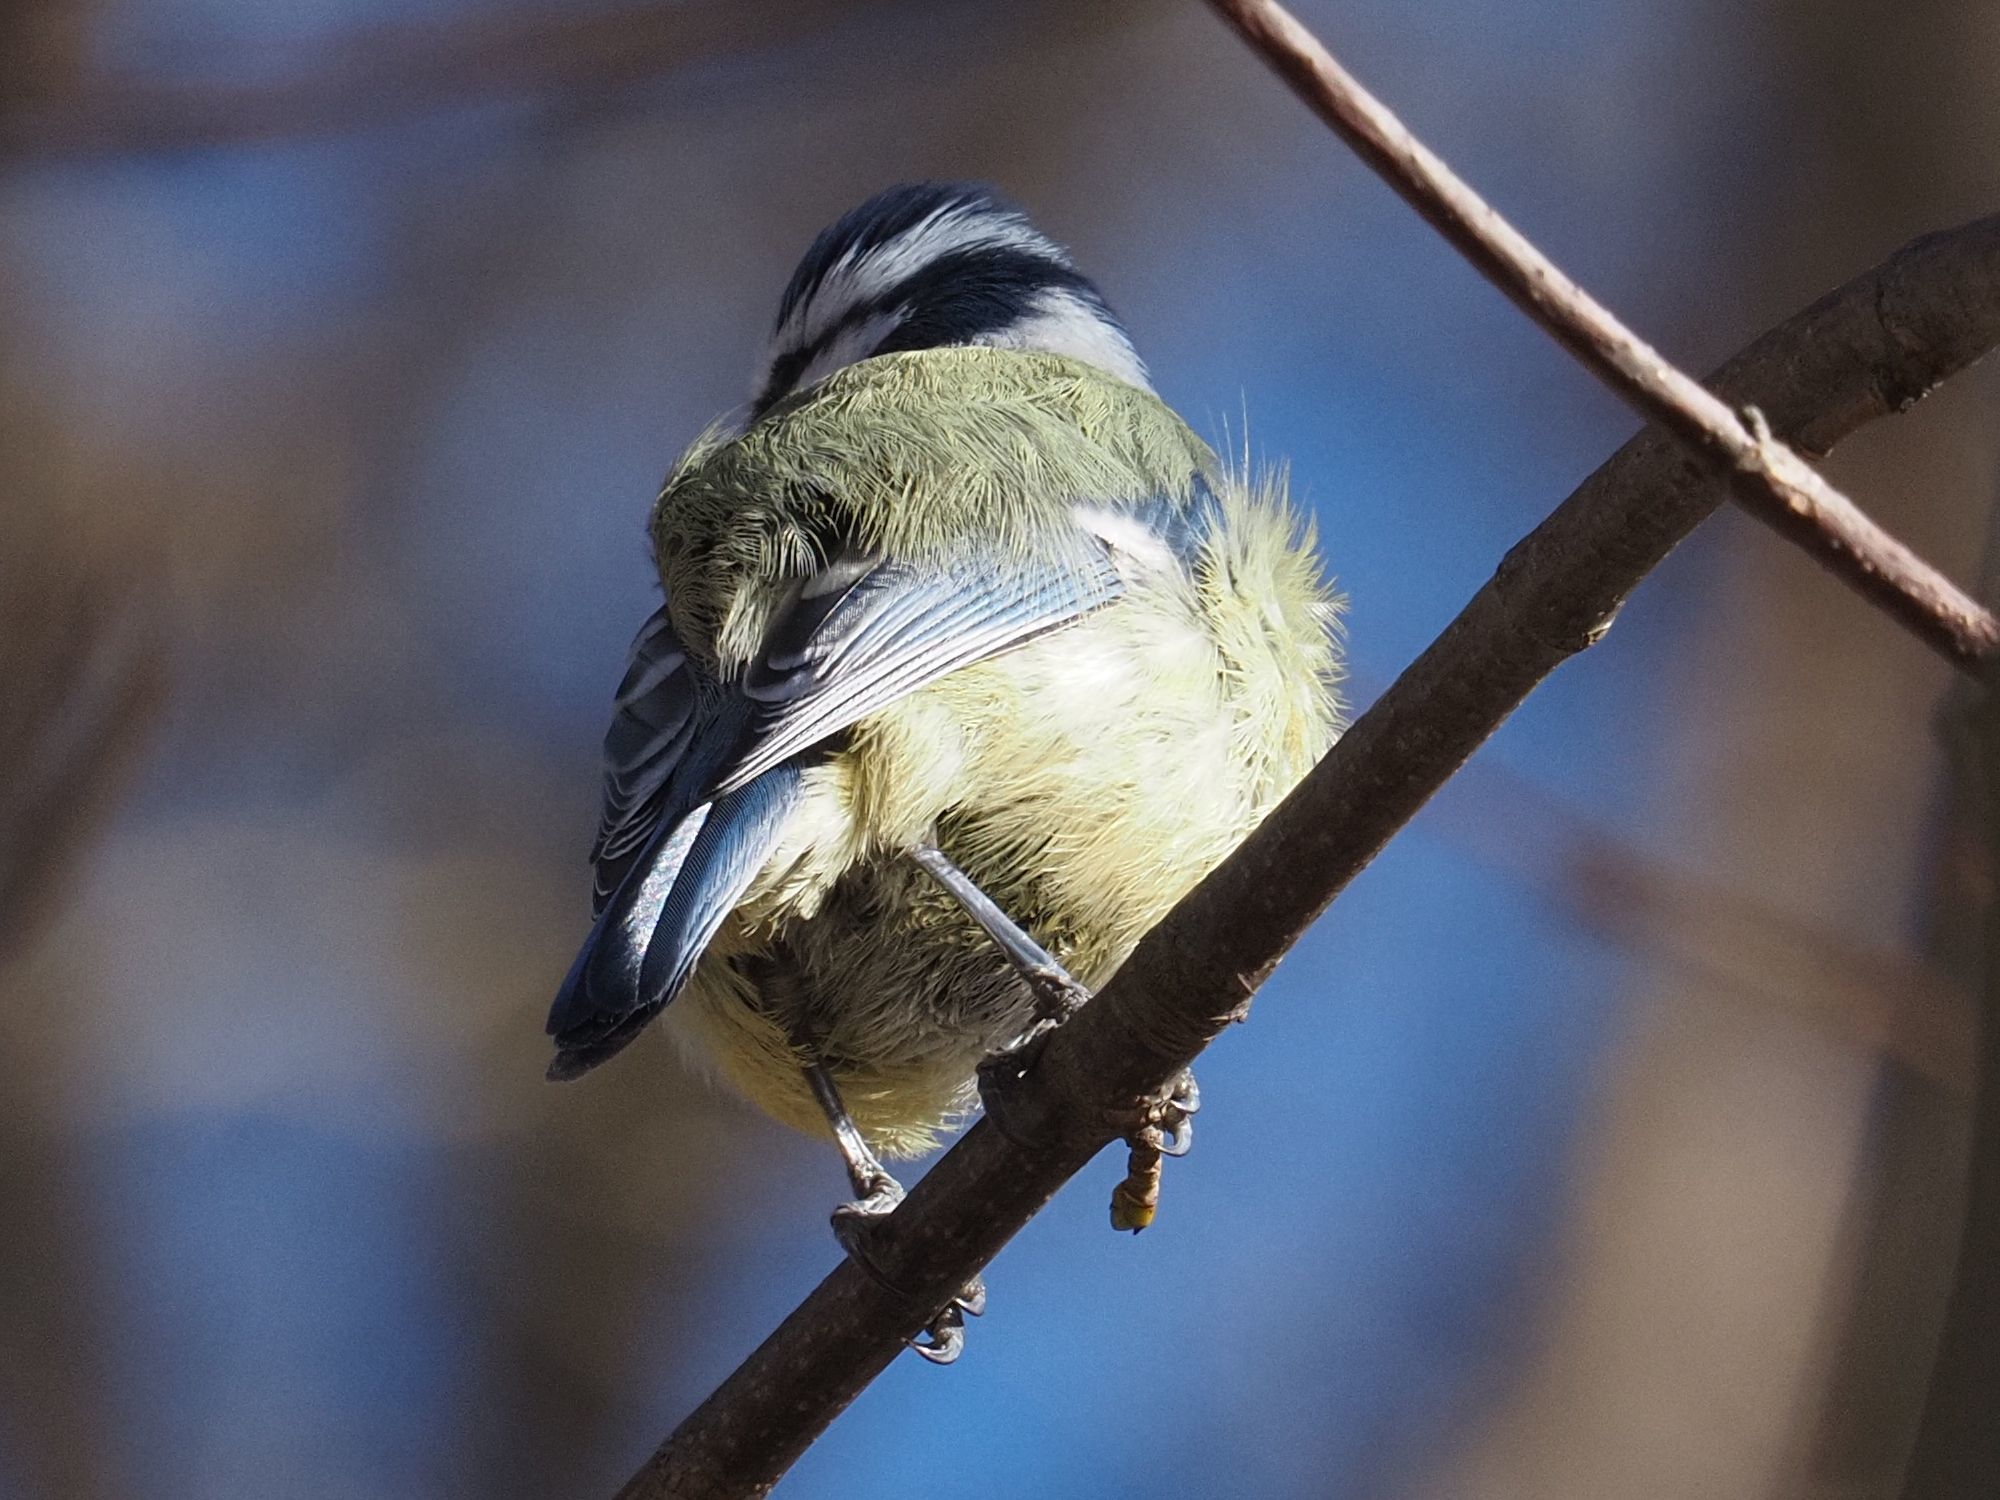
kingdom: Animalia
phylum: Chordata
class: Aves
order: Passeriformes
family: Paridae
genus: Cyanistes
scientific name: Cyanistes caeruleus
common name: Eurasian blue tit
